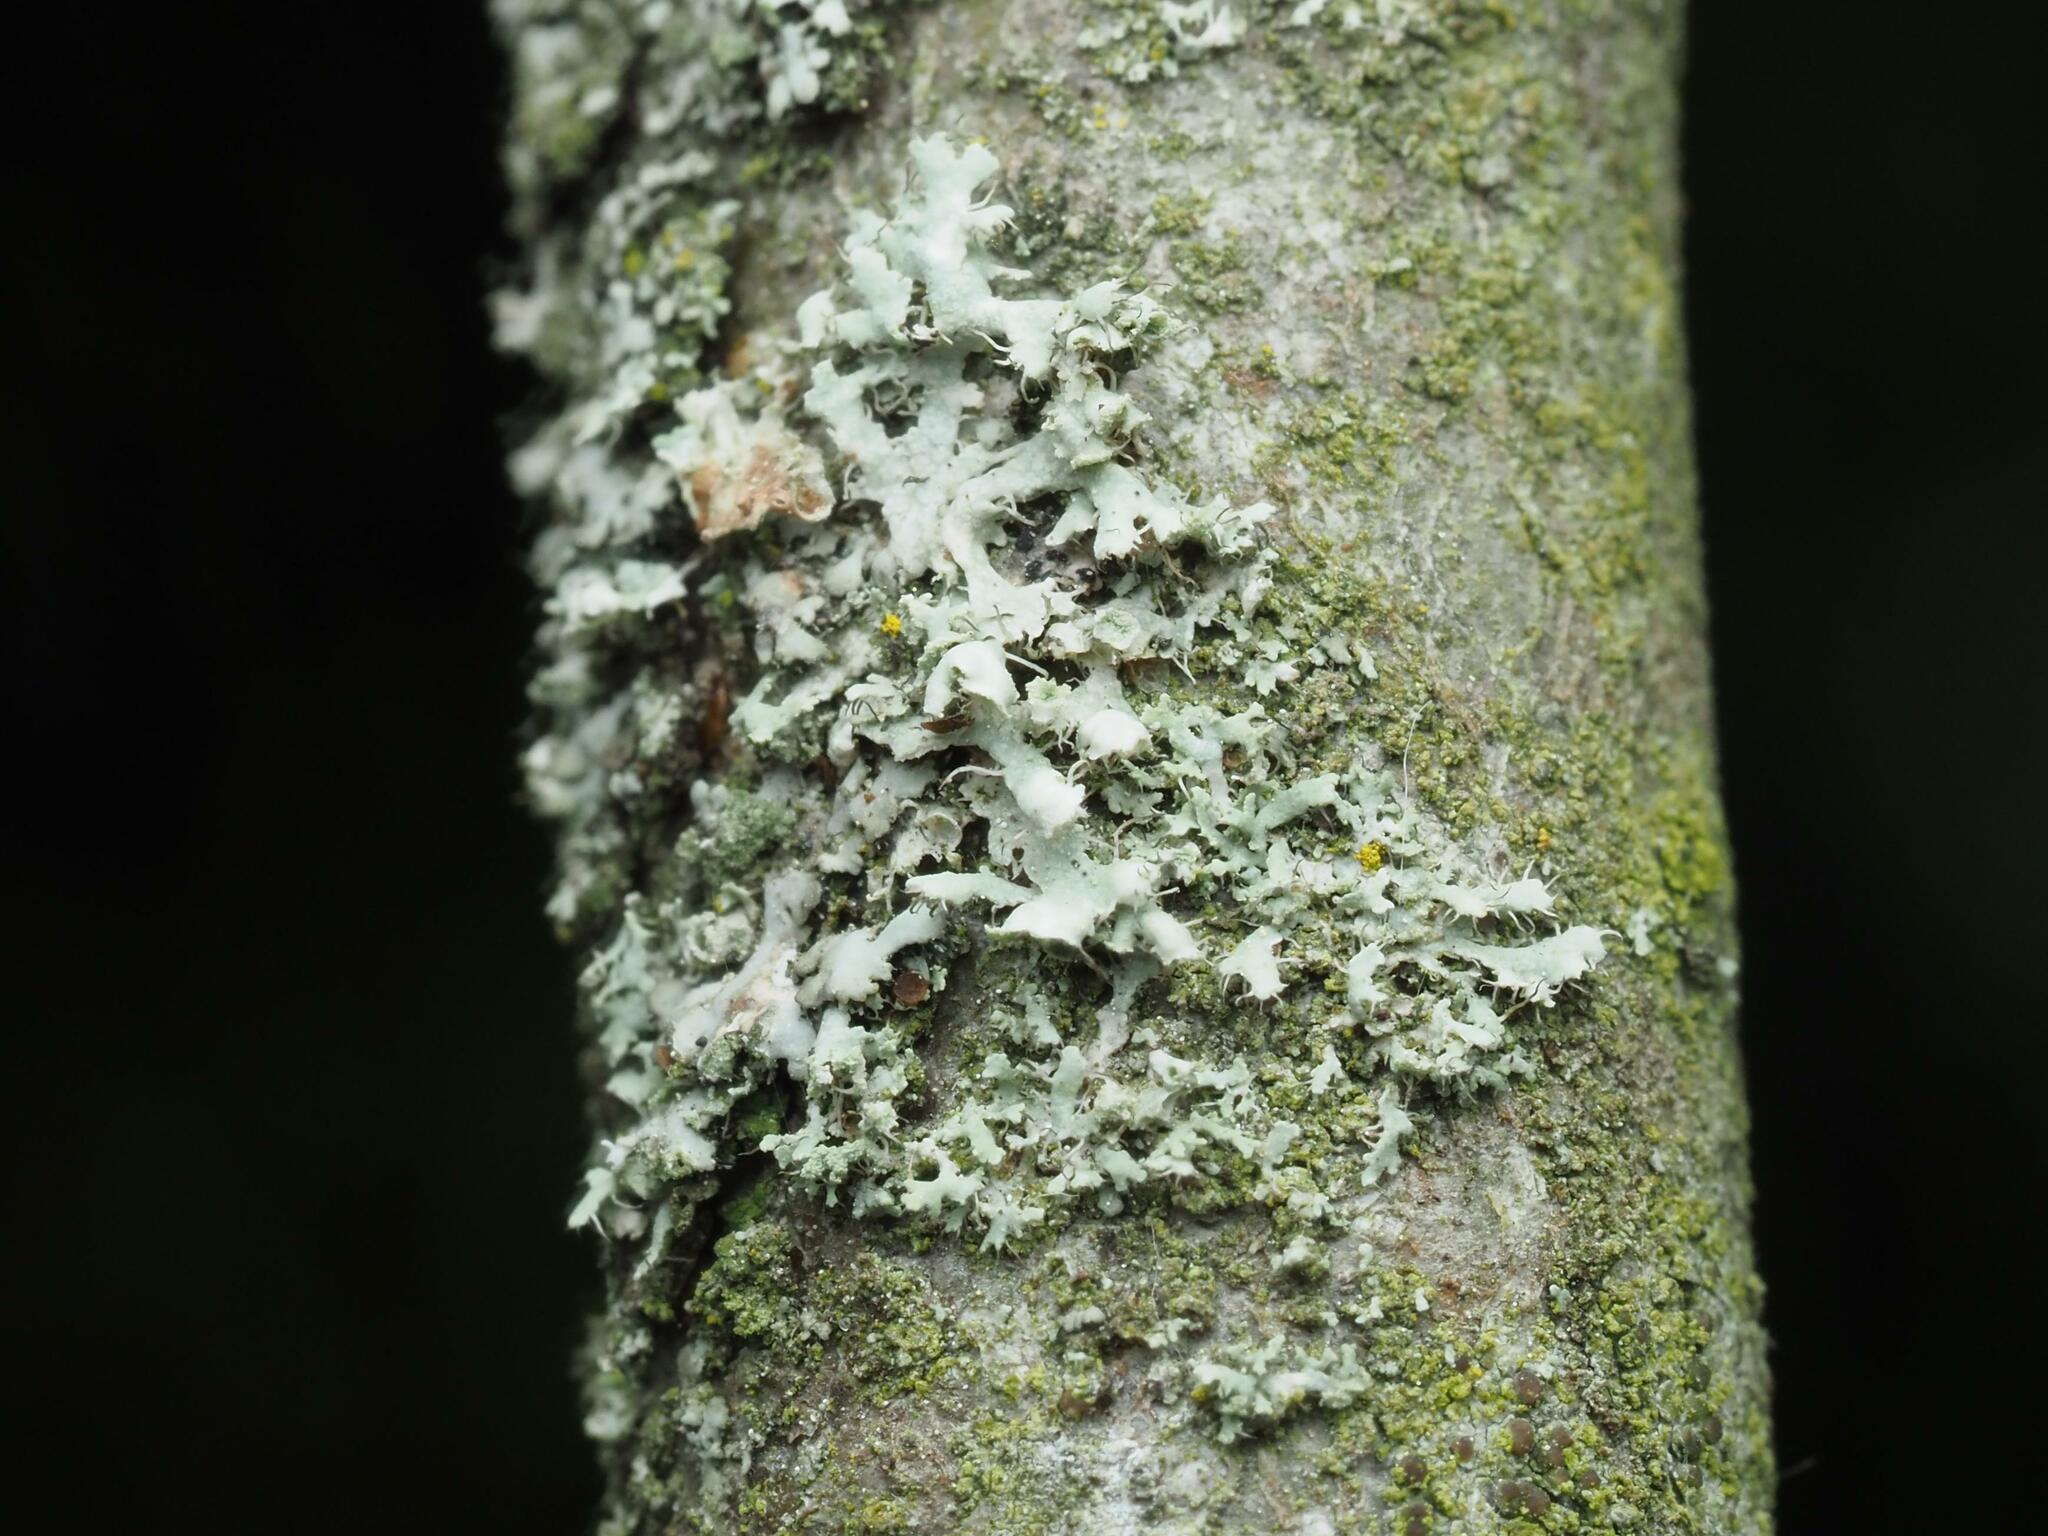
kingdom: Fungi
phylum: Ascomycota
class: Lecanoromycetes
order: Caliciales
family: Physciaceae
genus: Physcia
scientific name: Physcia adscendens
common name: Hooded rosette lichen
